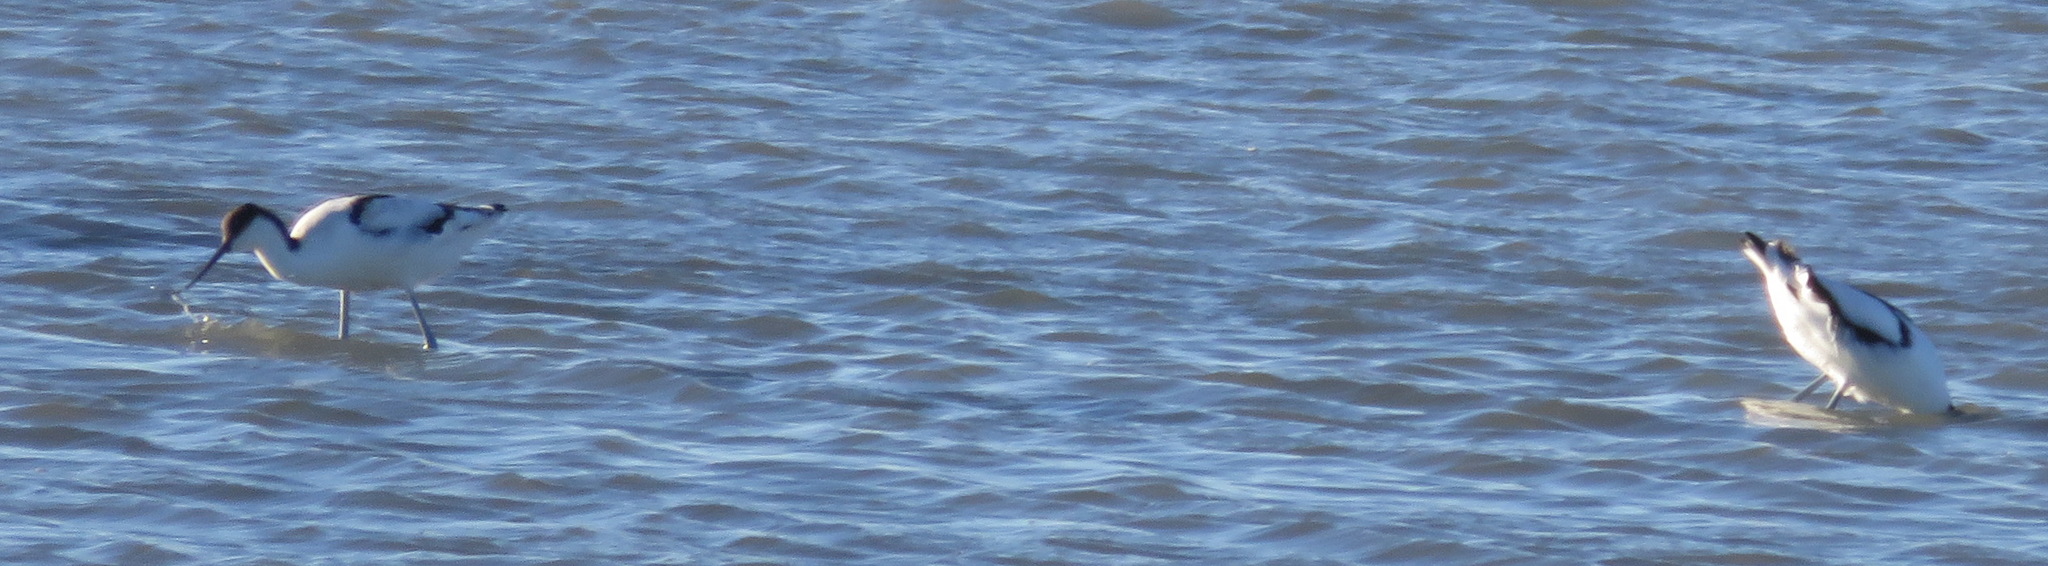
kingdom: Animalia
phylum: Chordata
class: Aves
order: Charadriiformes
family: Recurvirostridae
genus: Recurvirostra
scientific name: Recurvirostra avosetta
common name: Pied avocet
